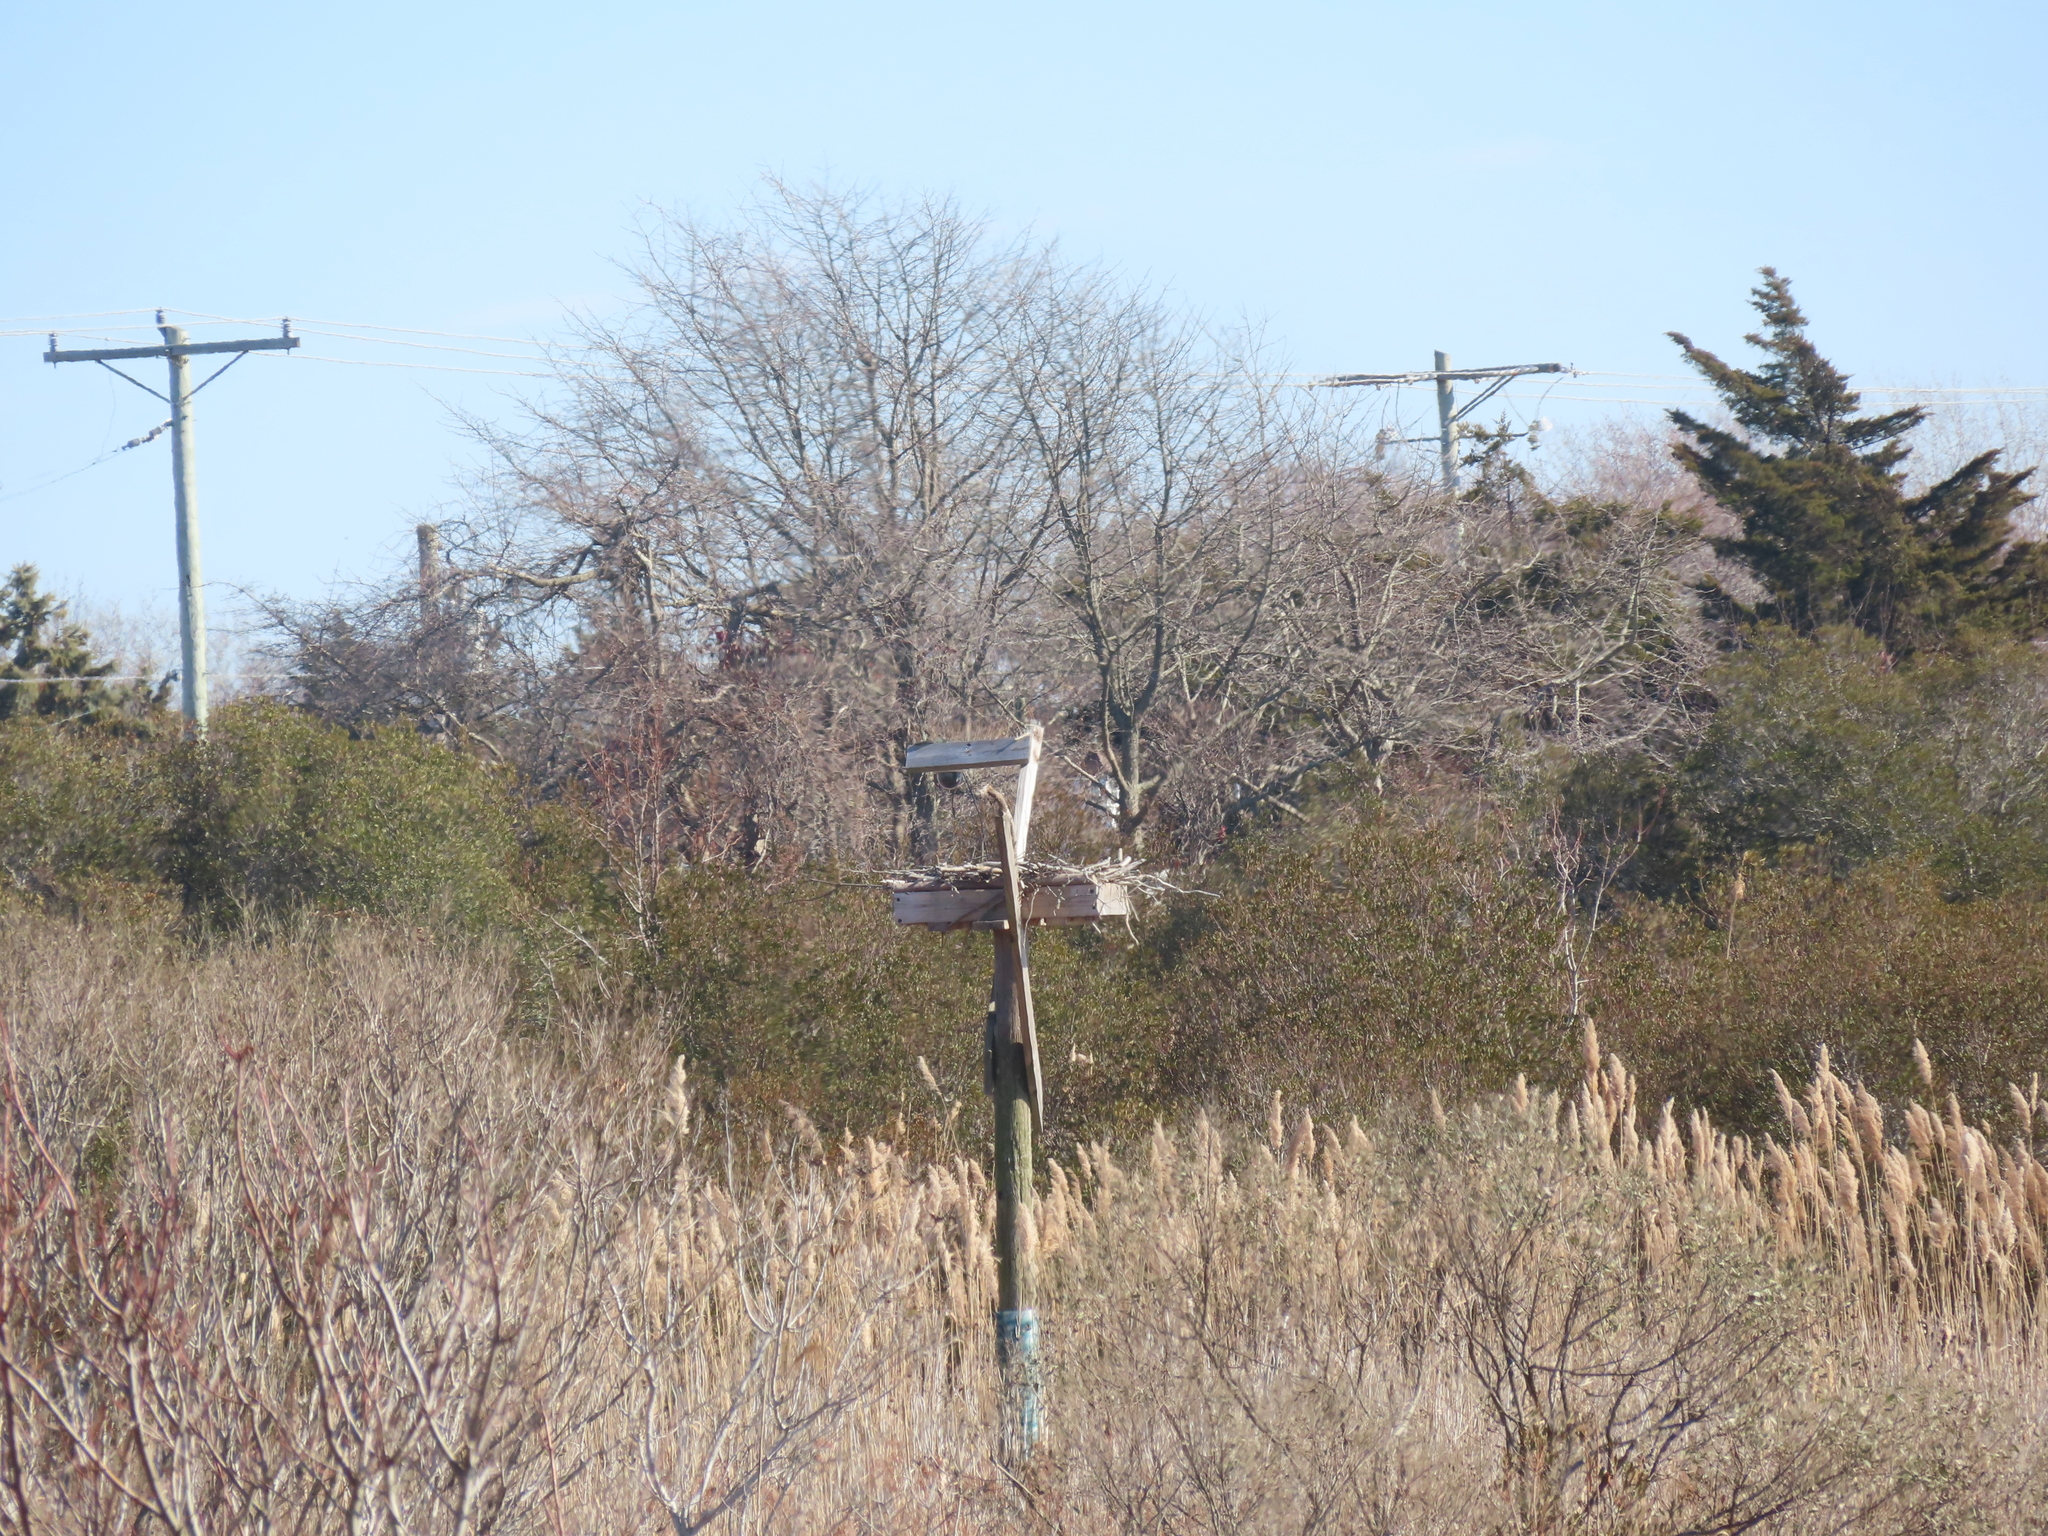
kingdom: Animalia
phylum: Chordata
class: Aves
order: Accipitriformes
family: Pandionidae
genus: Pandion
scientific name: Pandion haliaetus
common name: Osprey
